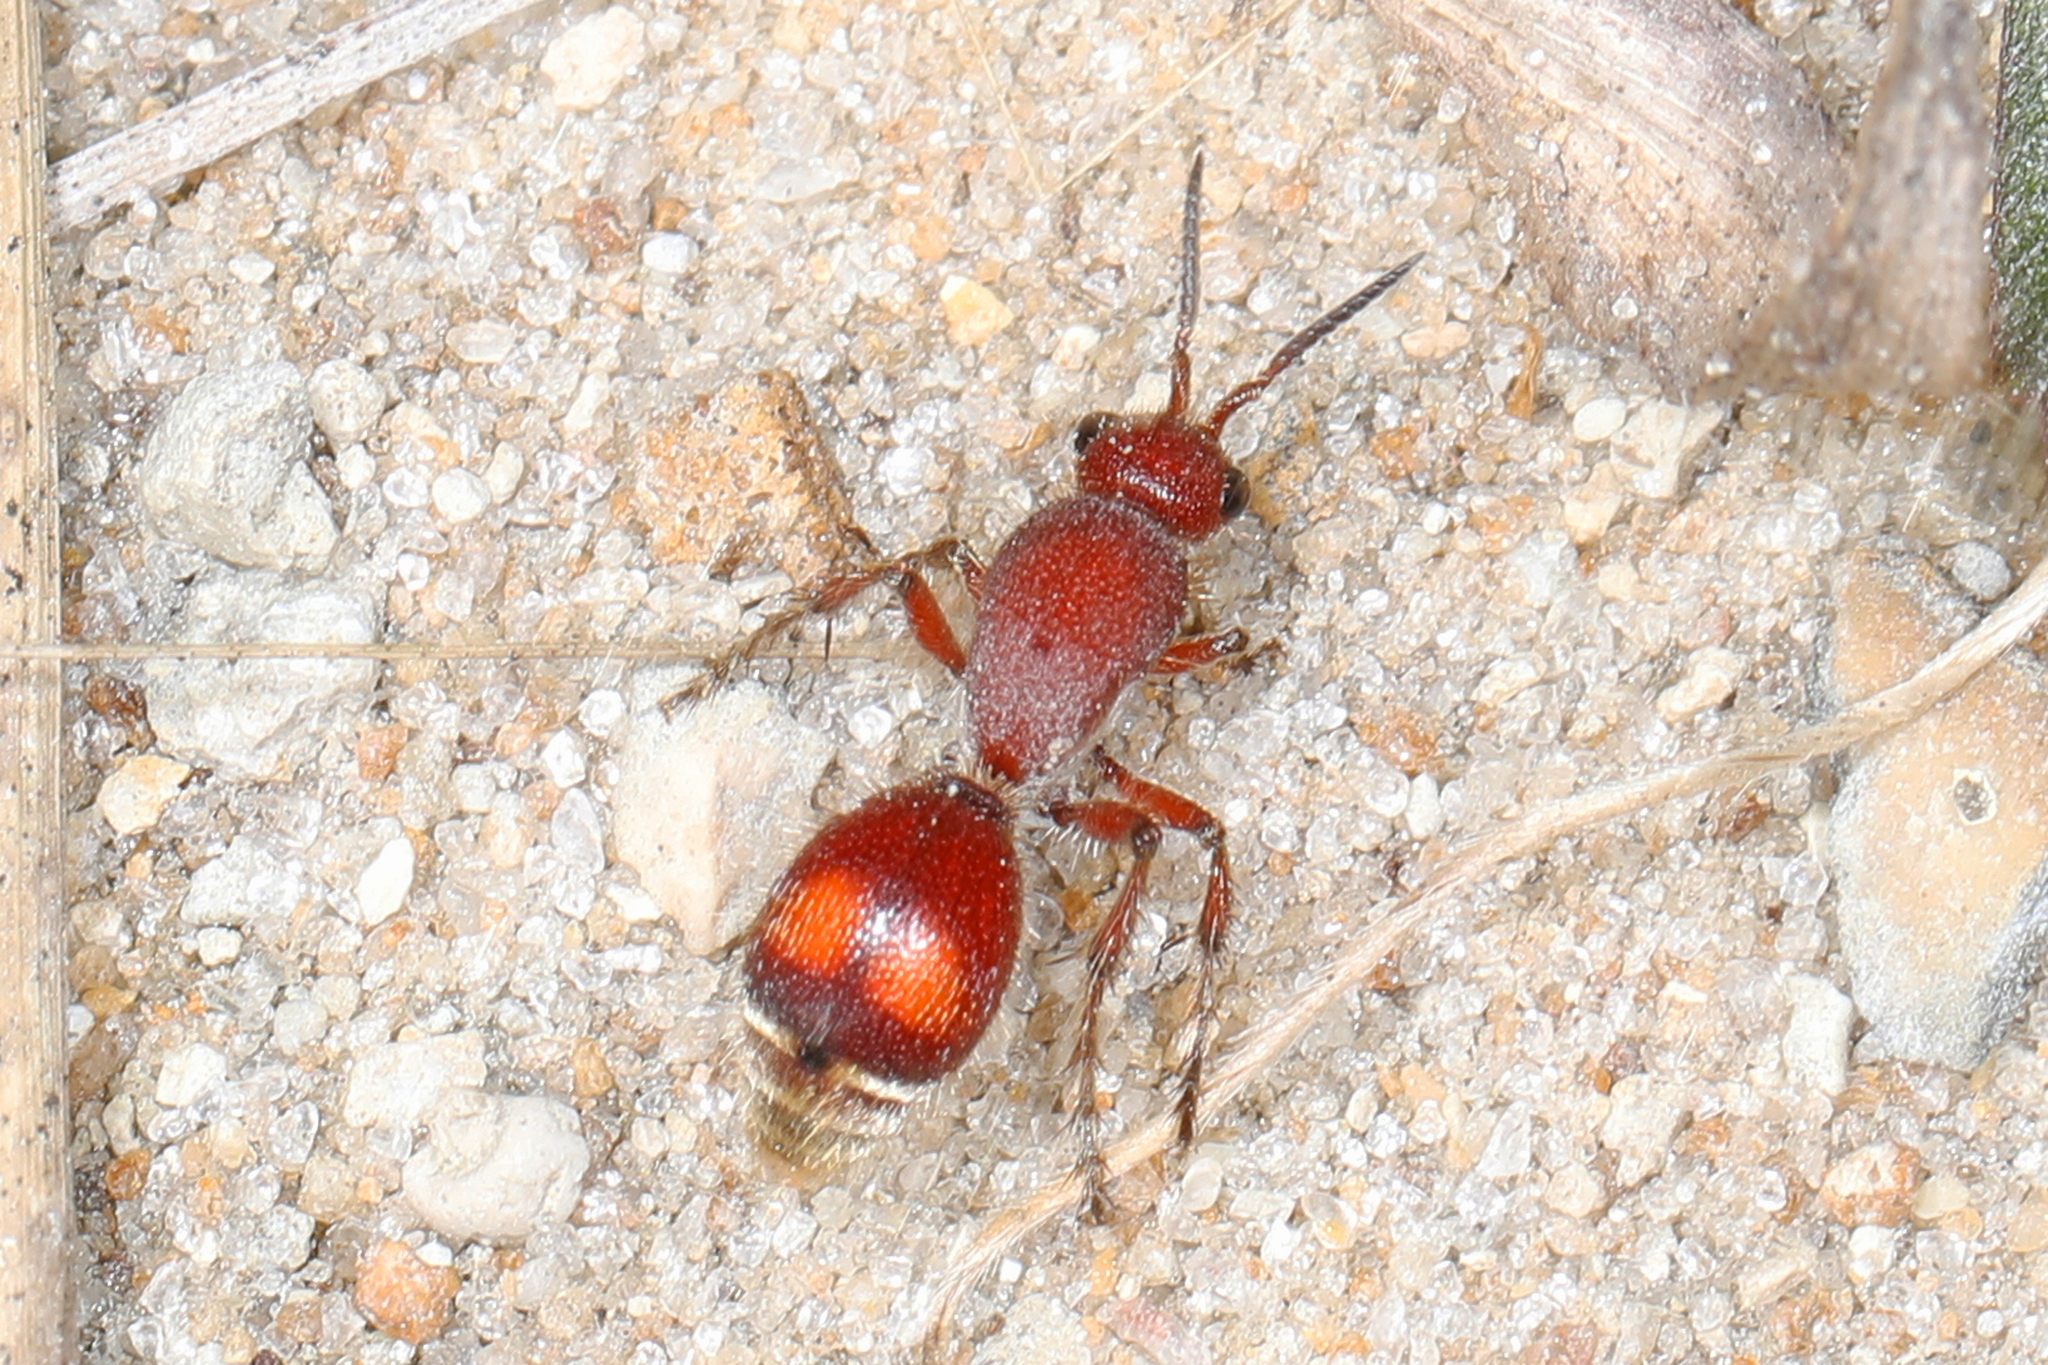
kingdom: Animalia
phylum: Arthropoda
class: Insecta
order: Hymenoptera
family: Mutillidae
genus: Dasymutilla
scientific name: Dasymutilla
